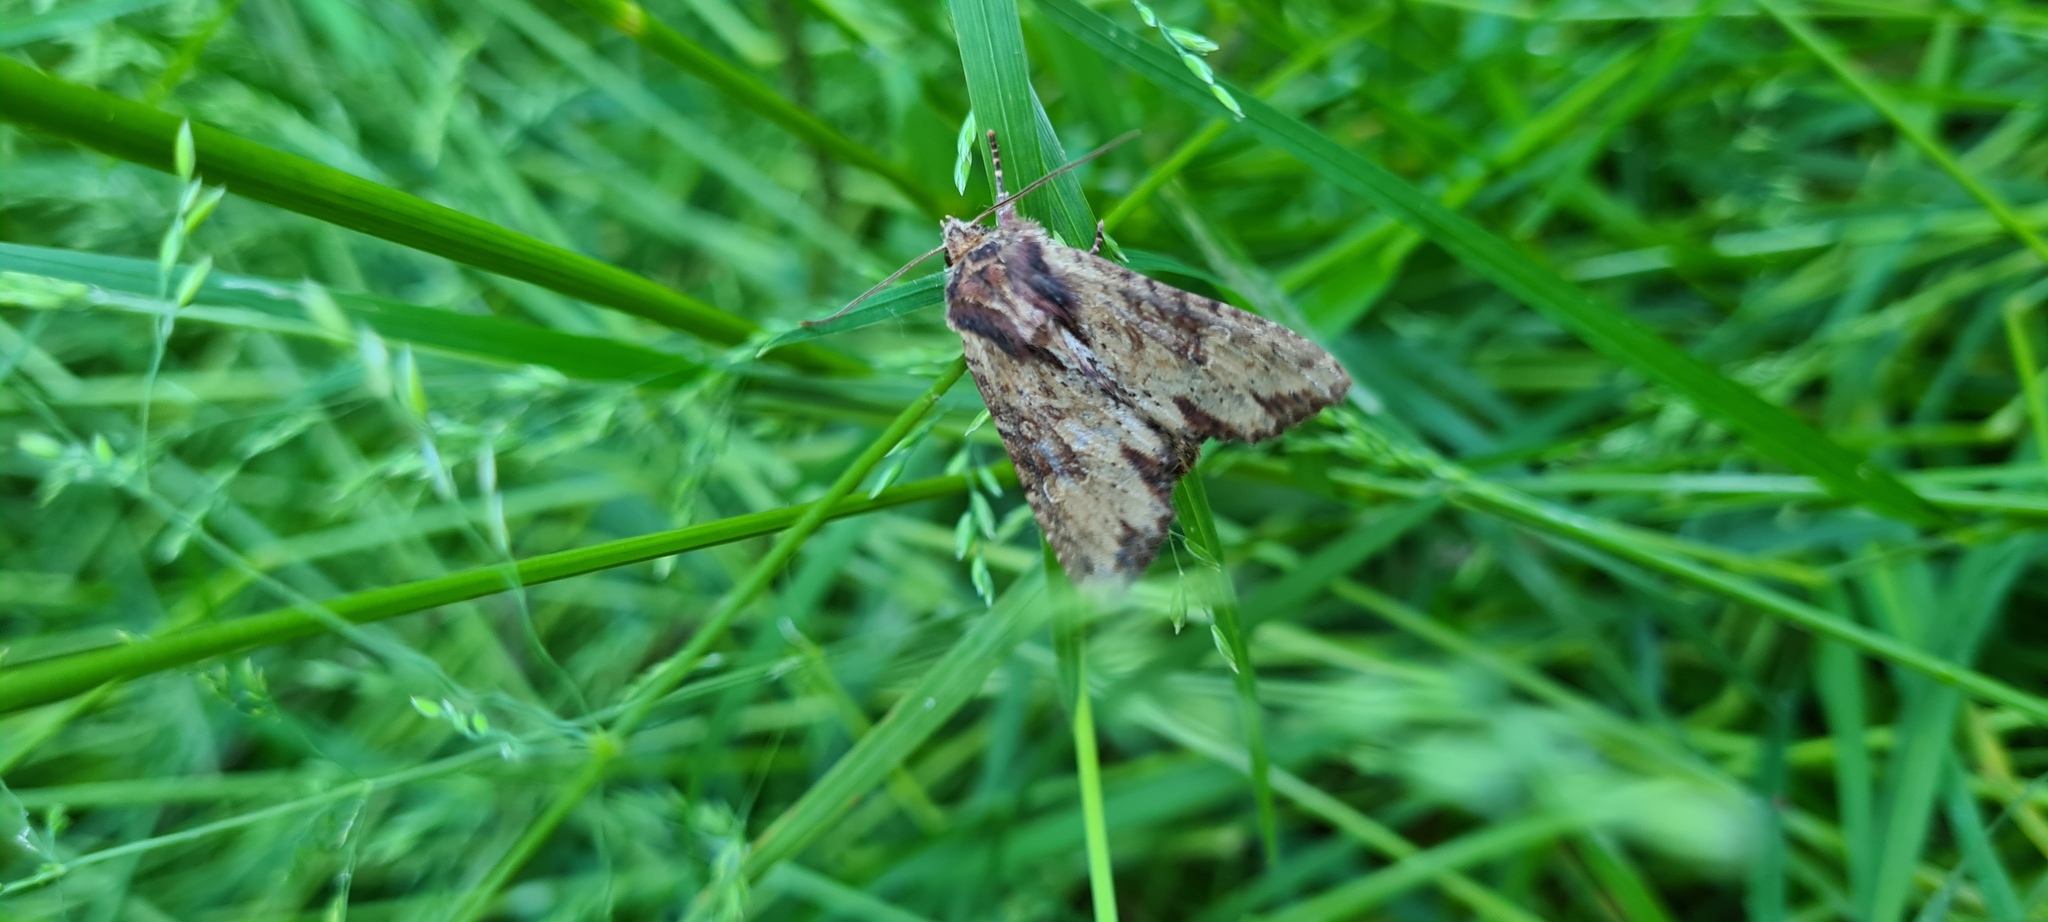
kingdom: Animalia
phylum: Arthropoda
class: Insecta
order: Lepidoptera
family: Noctuidae
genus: Apamea
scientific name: Apamea crenata
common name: Clouded-bordered brindle
